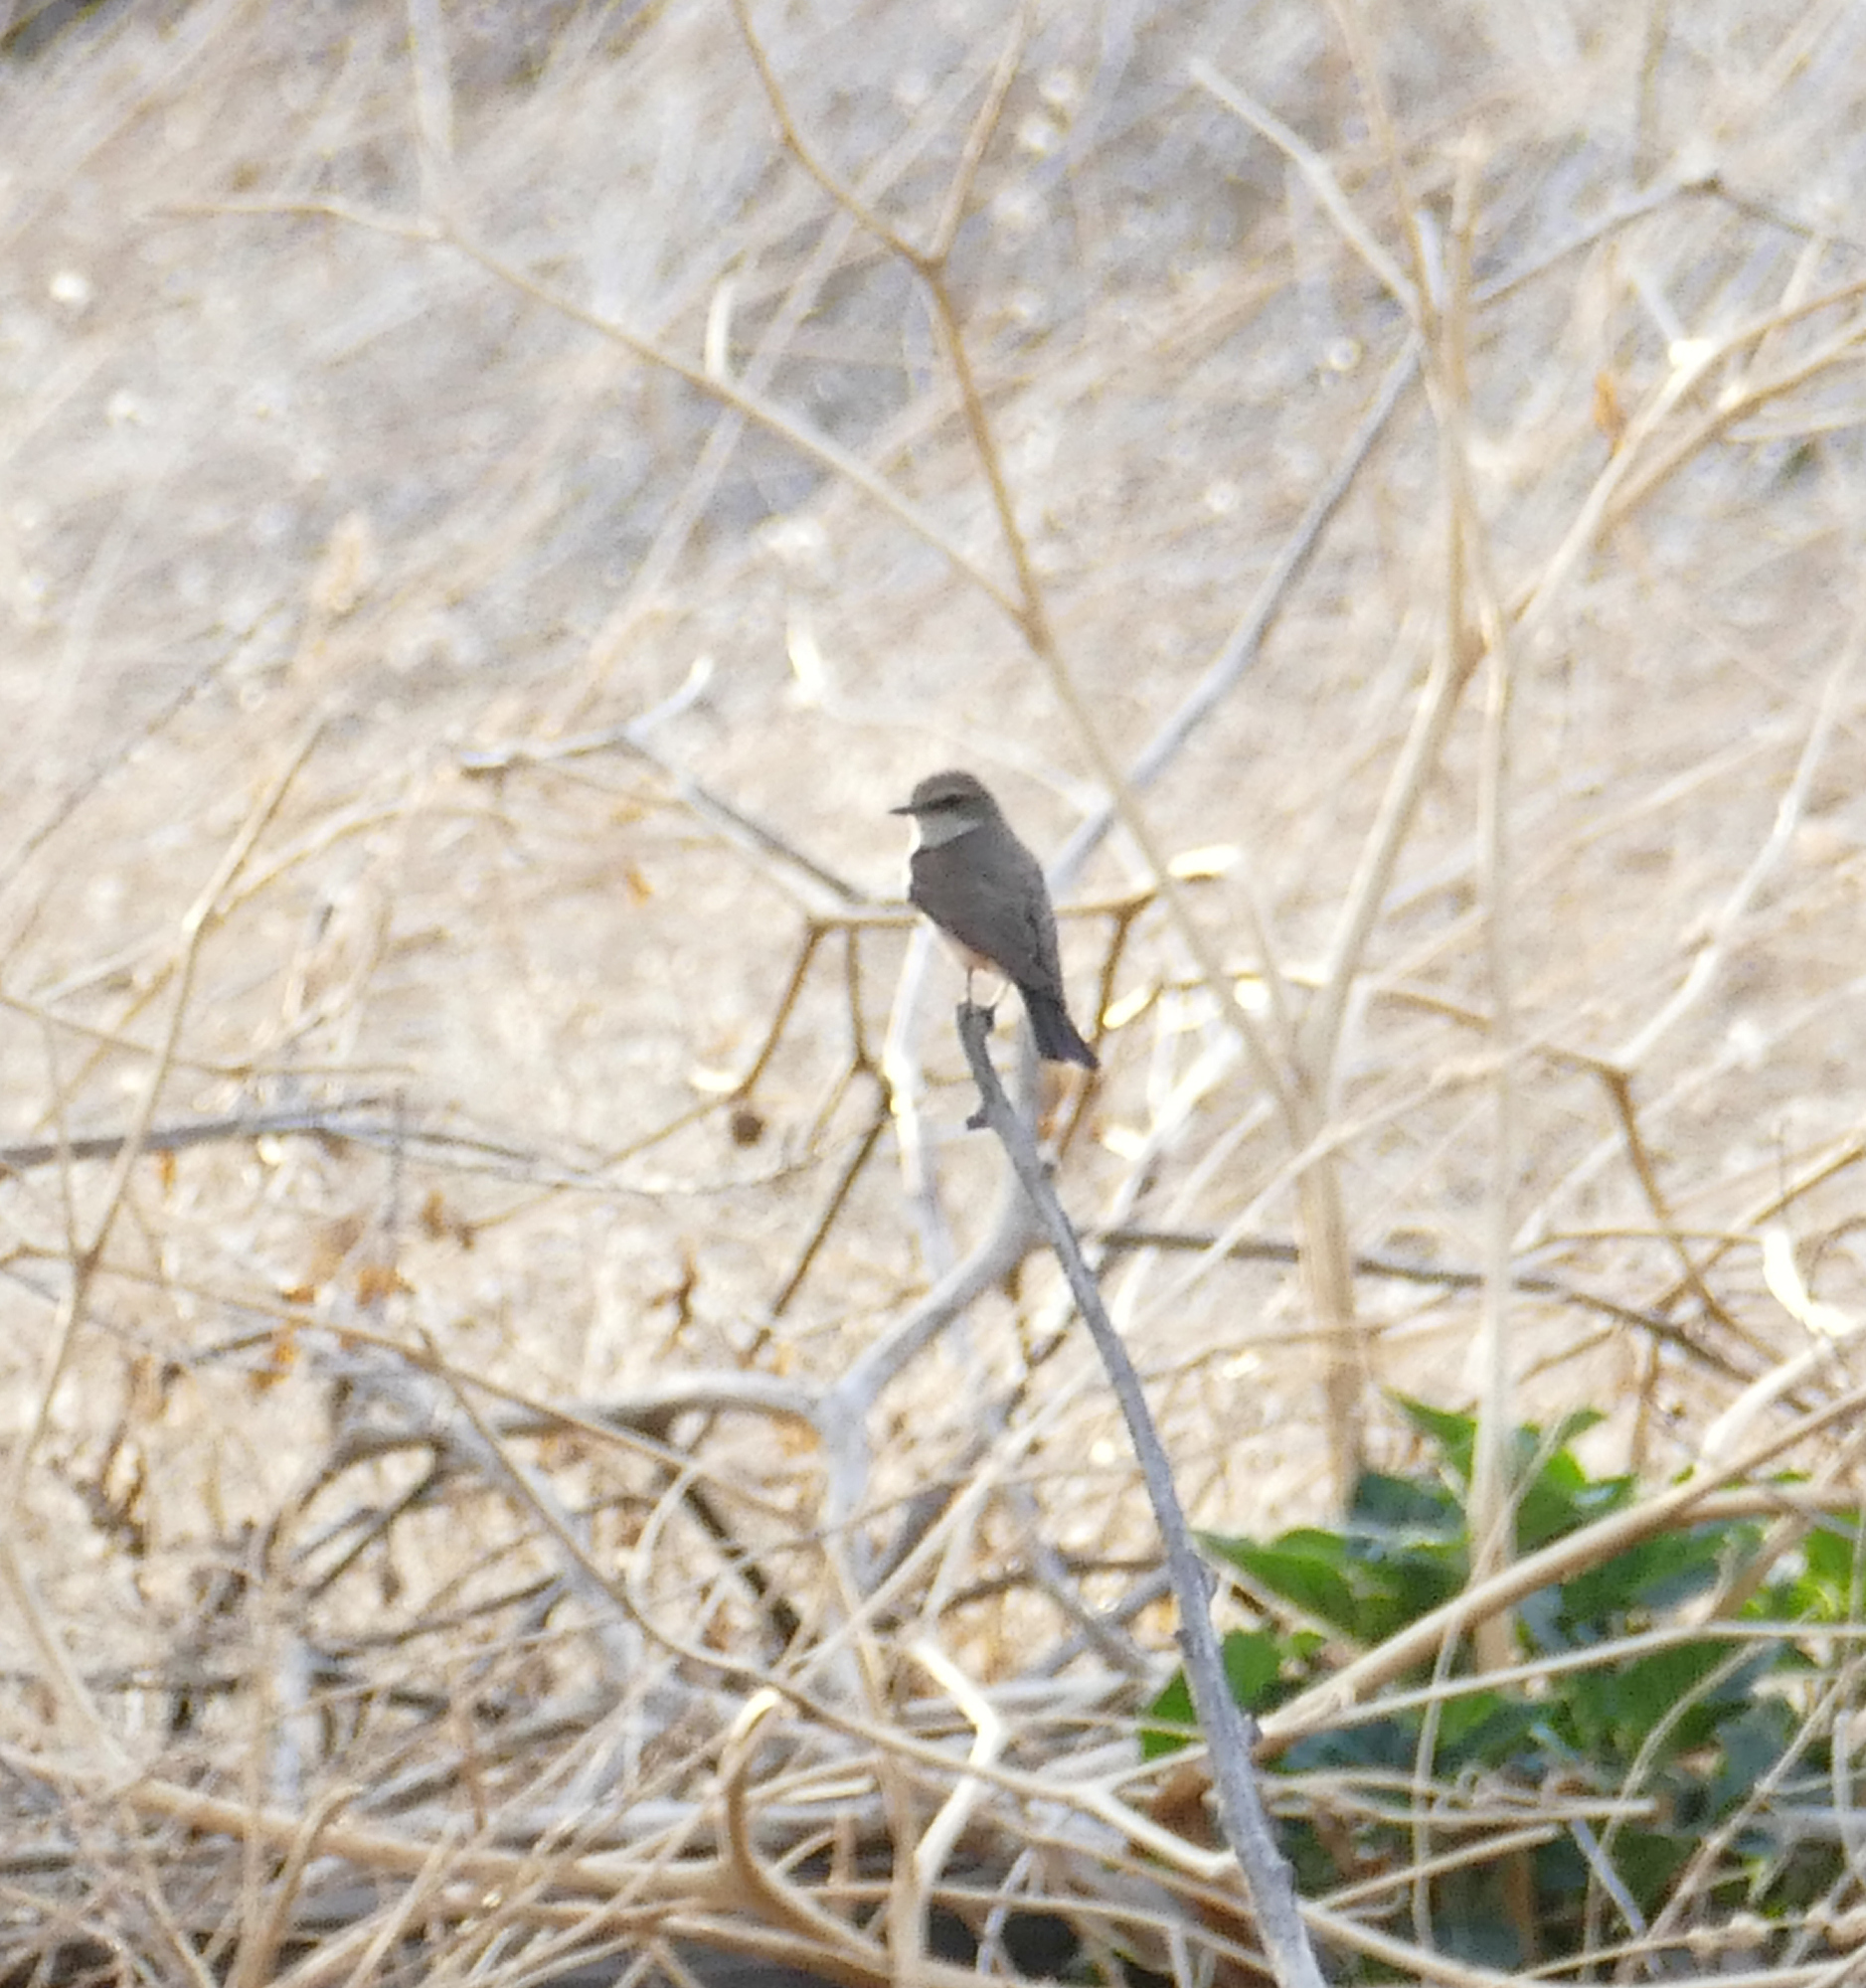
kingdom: Animalia
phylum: Chordata
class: Aves
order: Passeriformes
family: Tyrannidae
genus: Pyrocephalus
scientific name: Pyrocephalus rubinus
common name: Vermilion flycatcher
